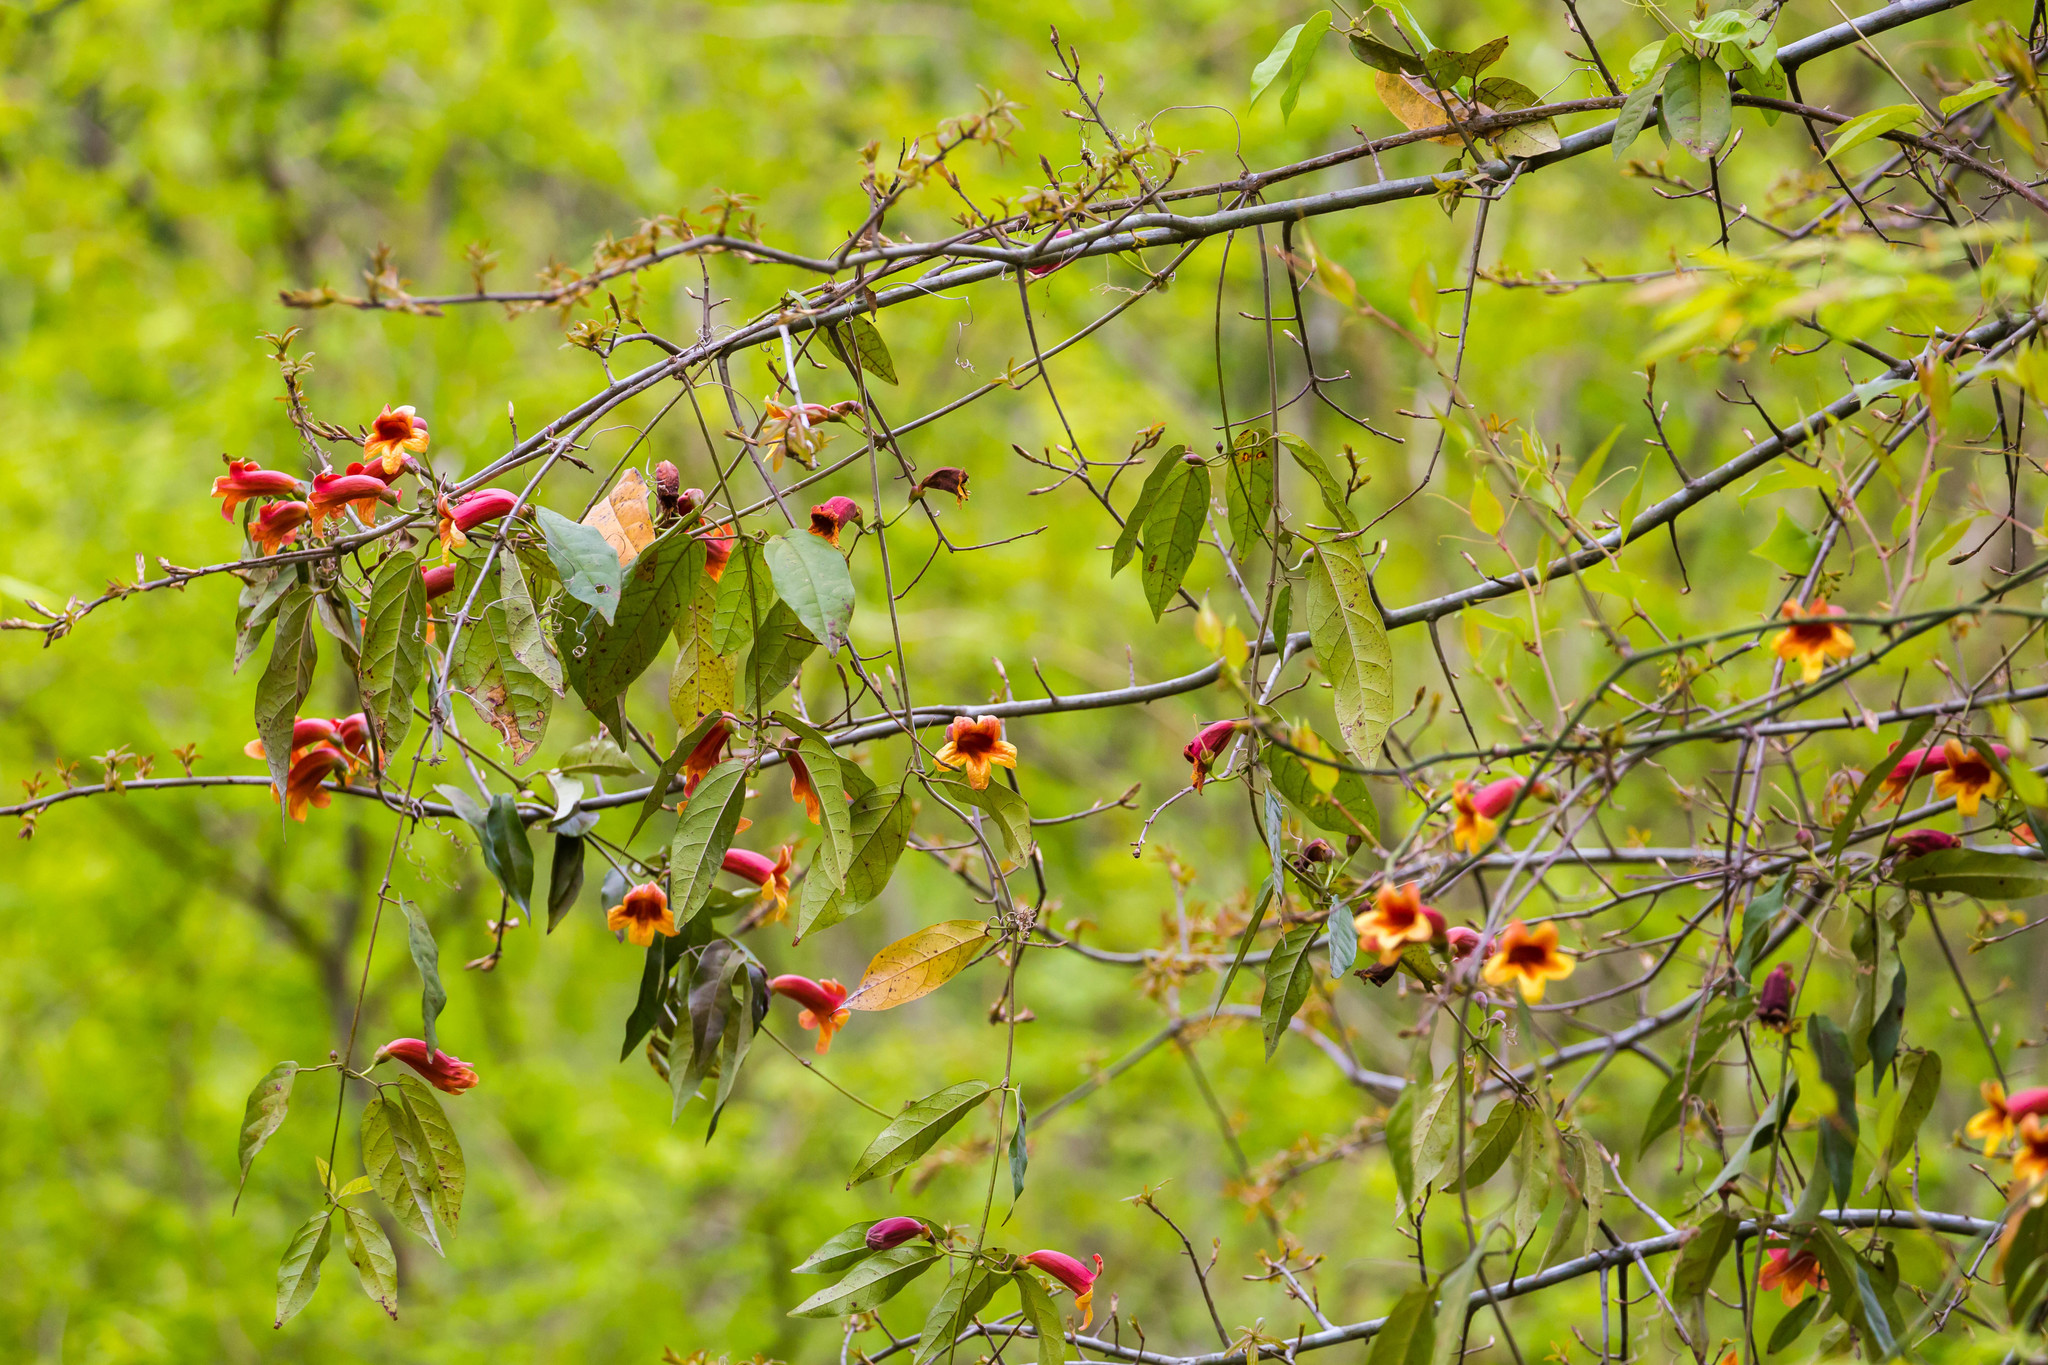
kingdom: Plantae
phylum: Tracheophyta
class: Magnoliopsida
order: Lamiales
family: Bignoniaceae
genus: Bignonia
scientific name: Bignonia capreolata
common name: Crossvine
